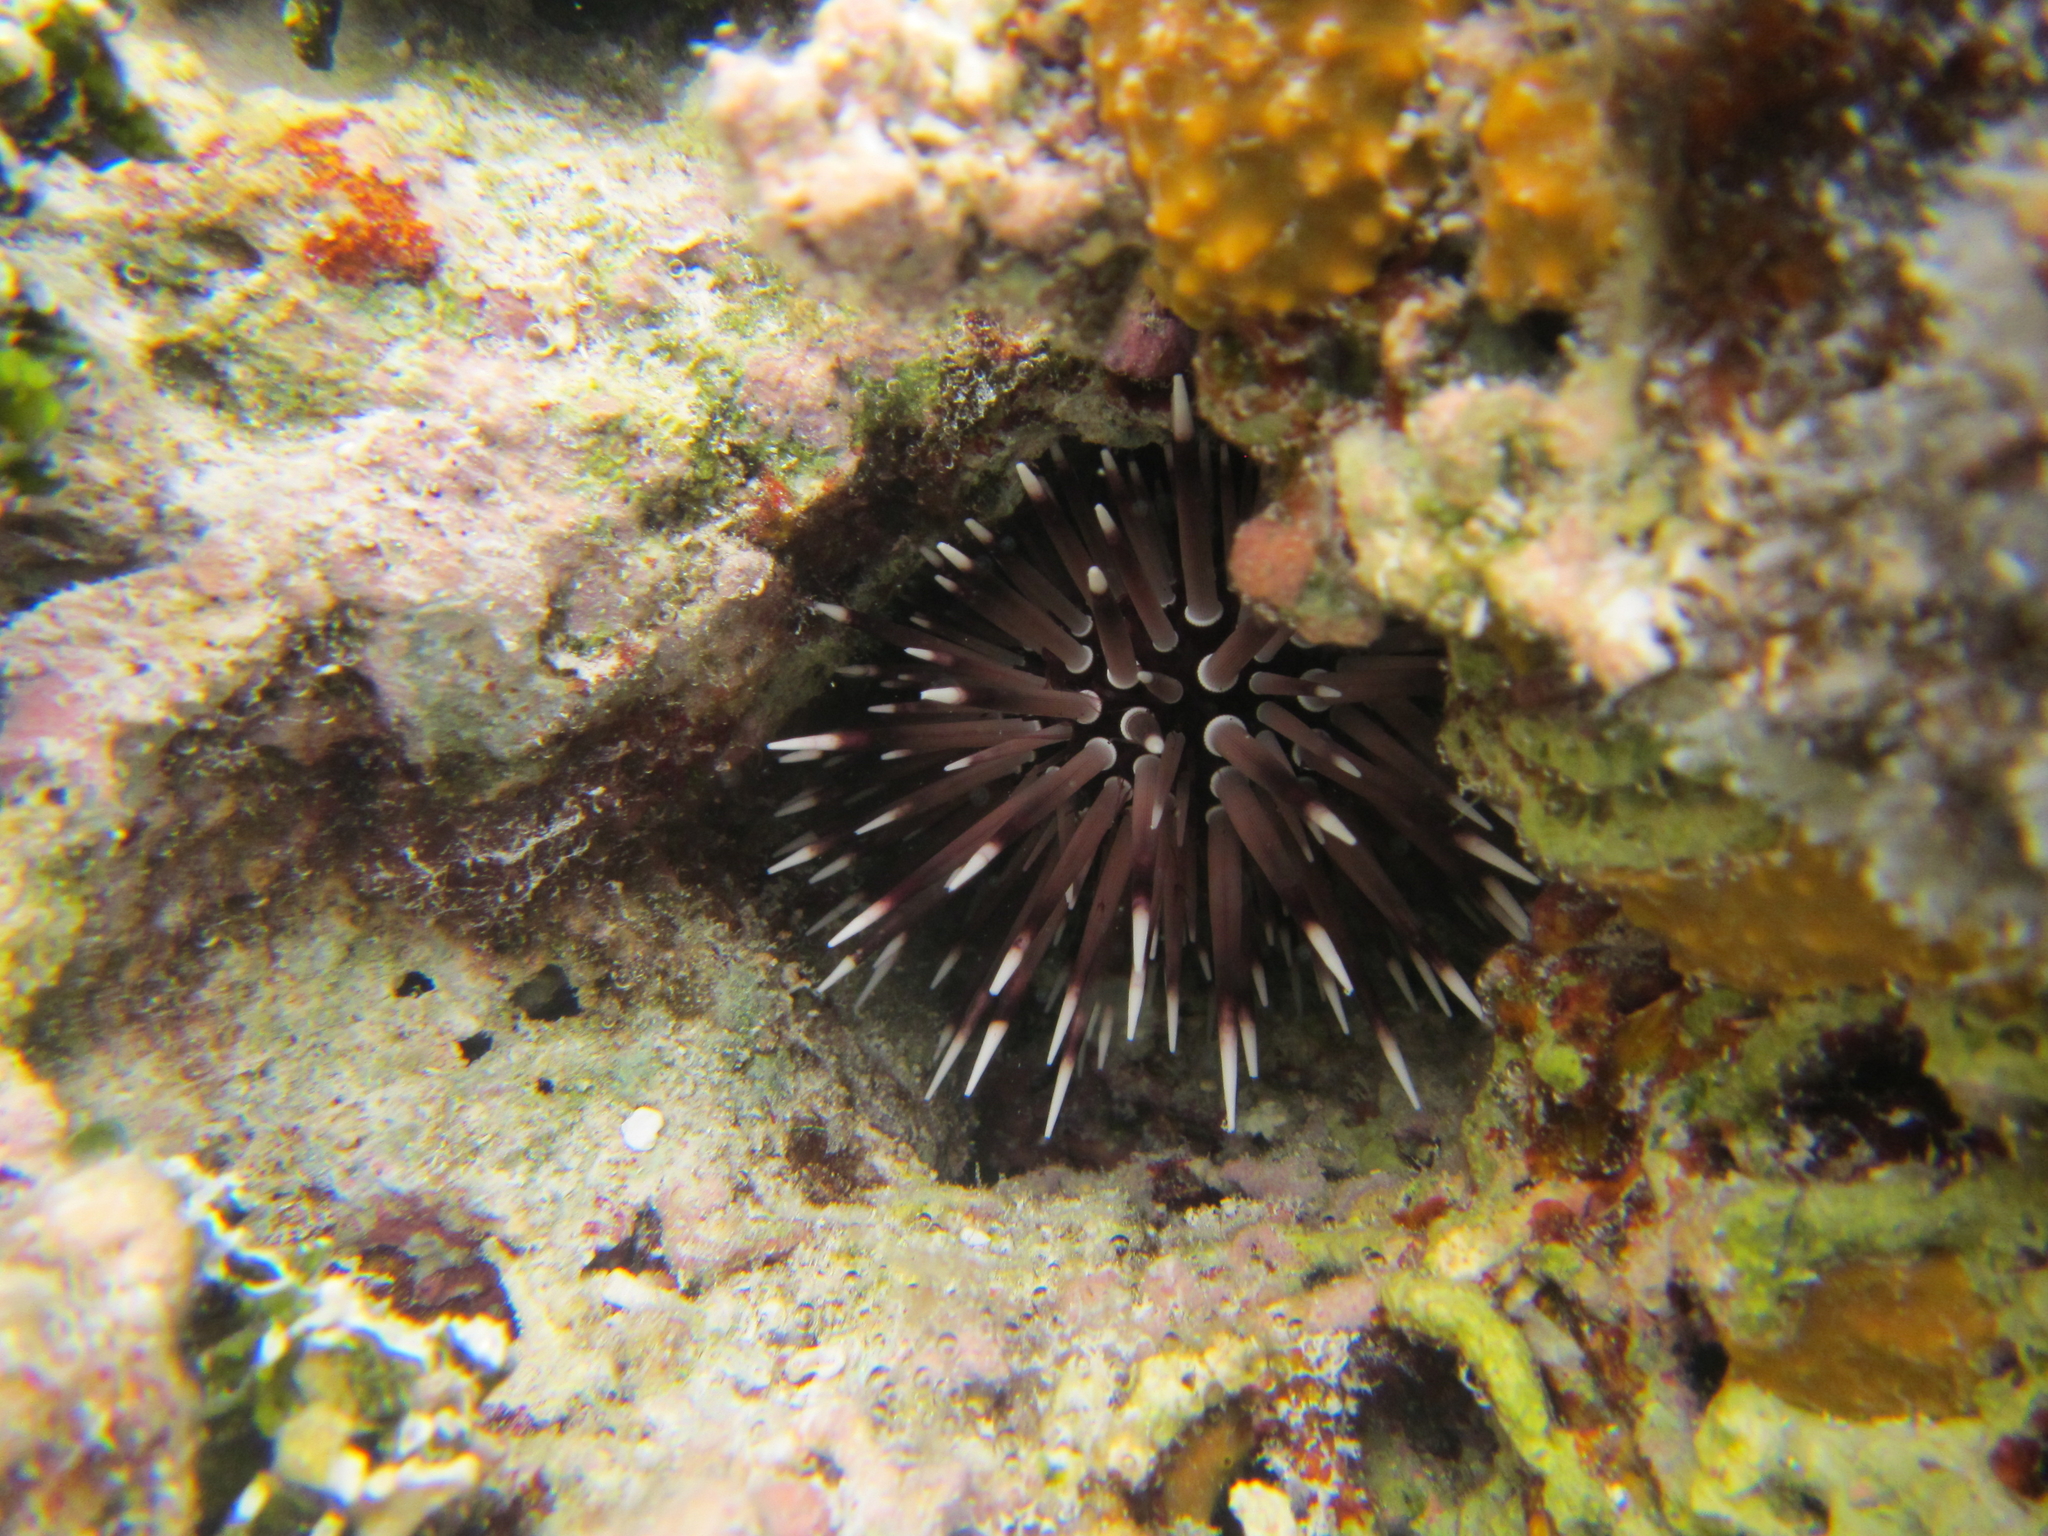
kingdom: Animalia
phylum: Echinodermata
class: Echinoidea
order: Camarodonta
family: Echinometridae
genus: Echinometra
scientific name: Echinometra mathaei
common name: Rock-boring urchin
